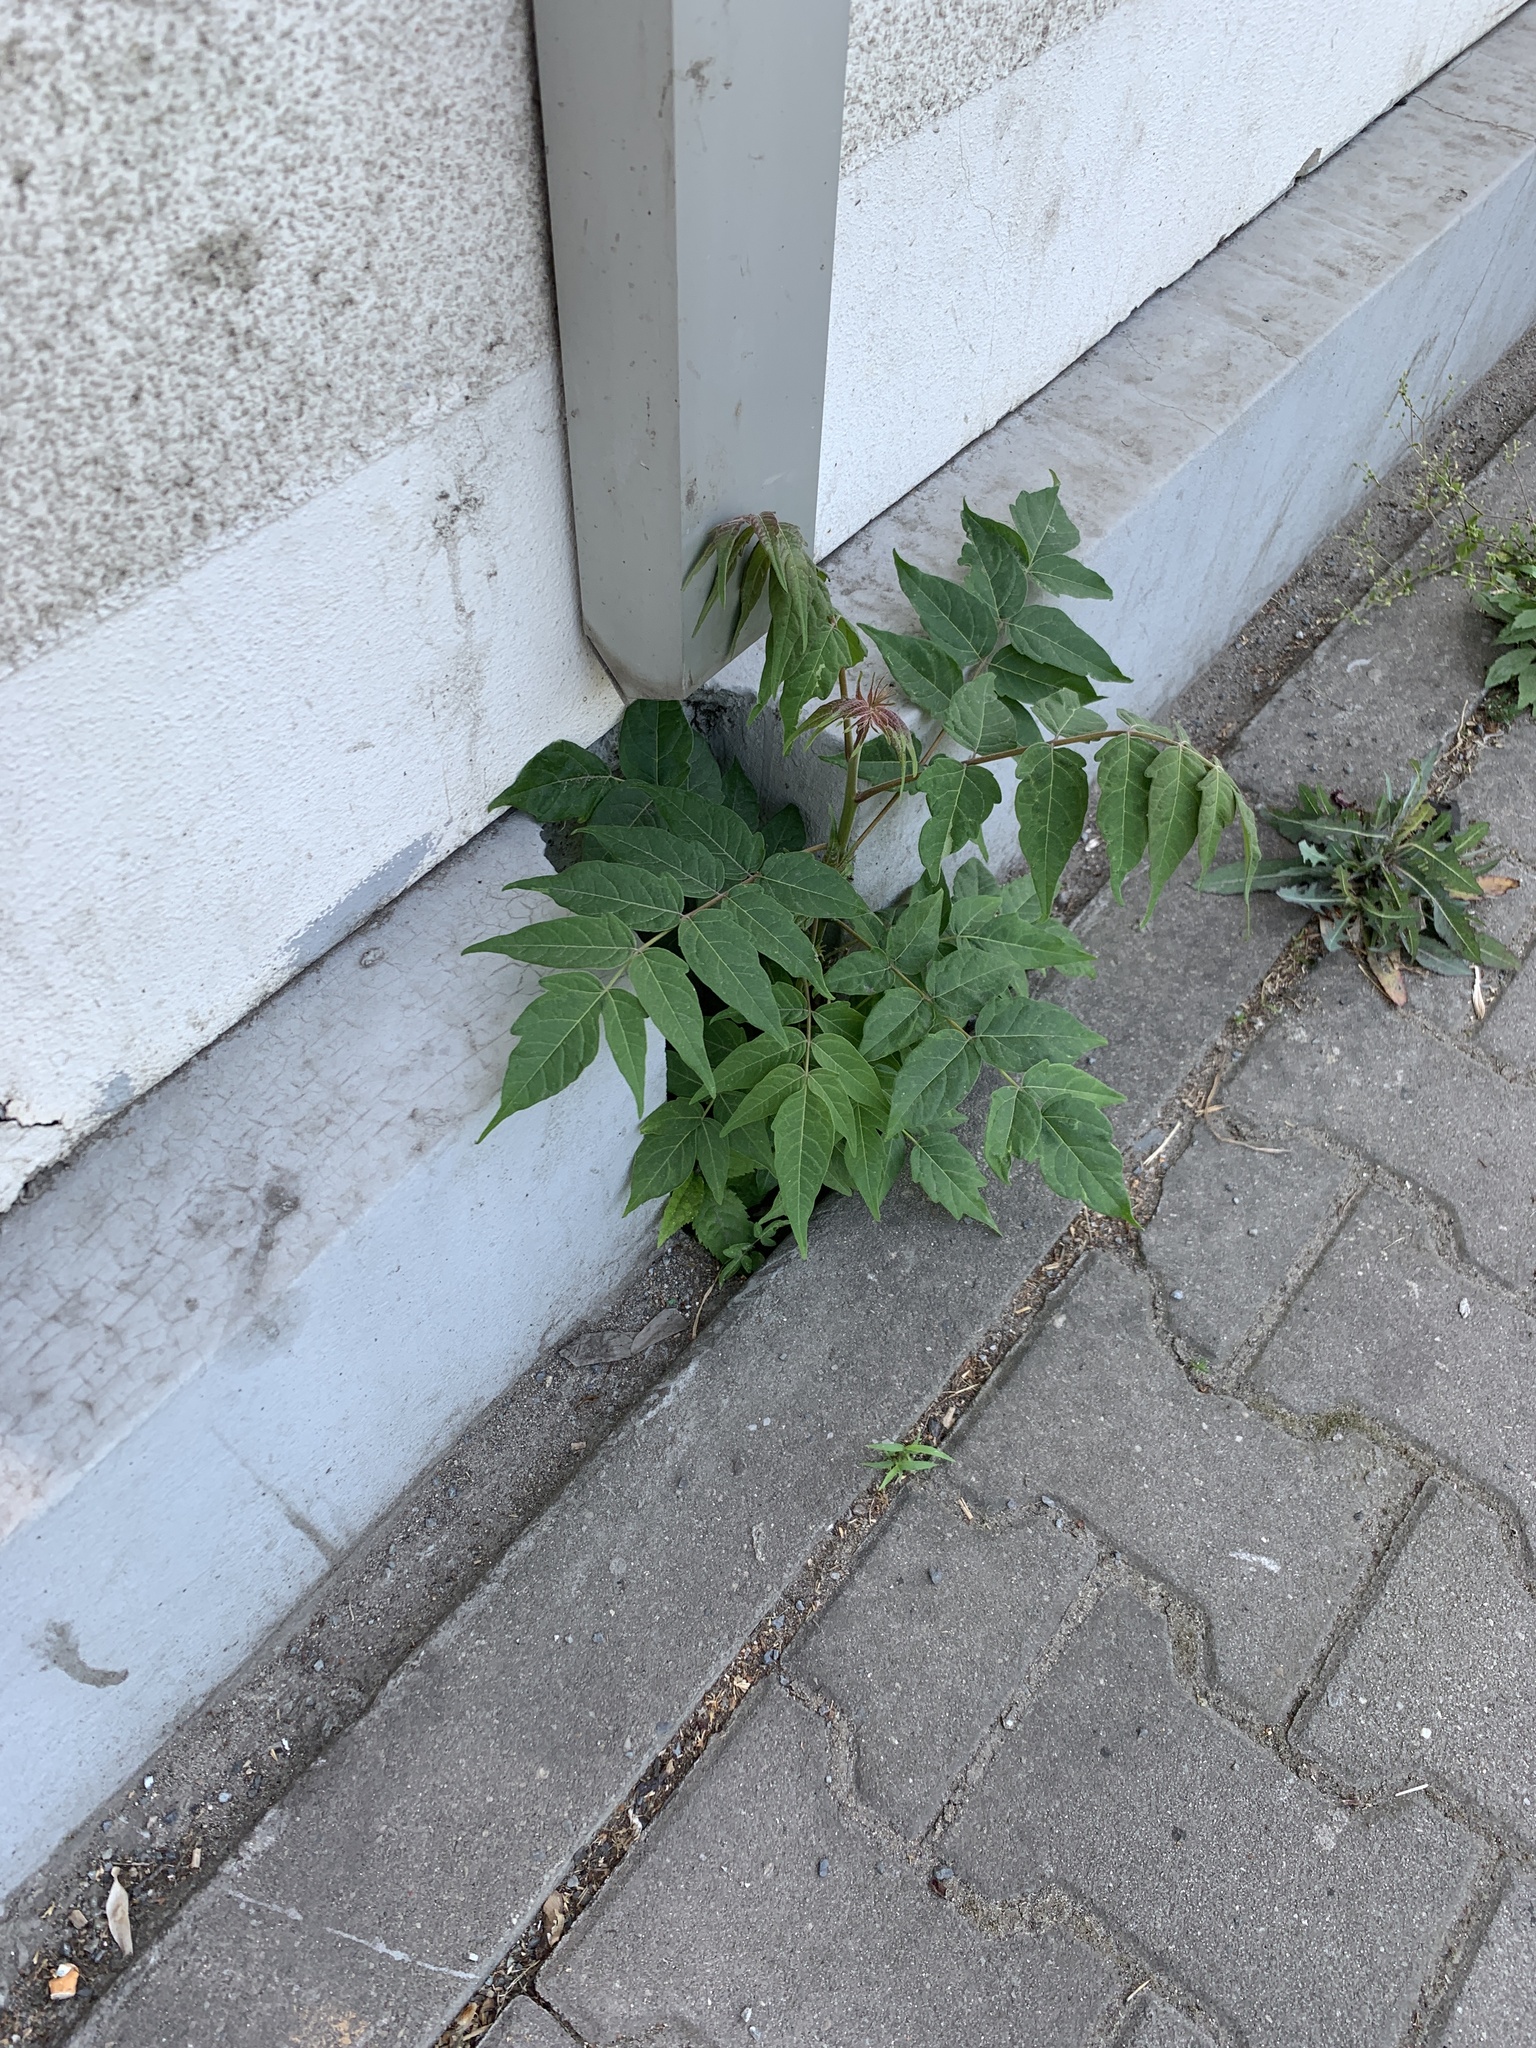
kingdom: Plantae
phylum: Tracheophyta
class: Magnoliopsida
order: Sapindales
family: Simaroubaceae
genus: Ailanthus
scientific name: Ailanthus altissima
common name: Tree-of-heaven
